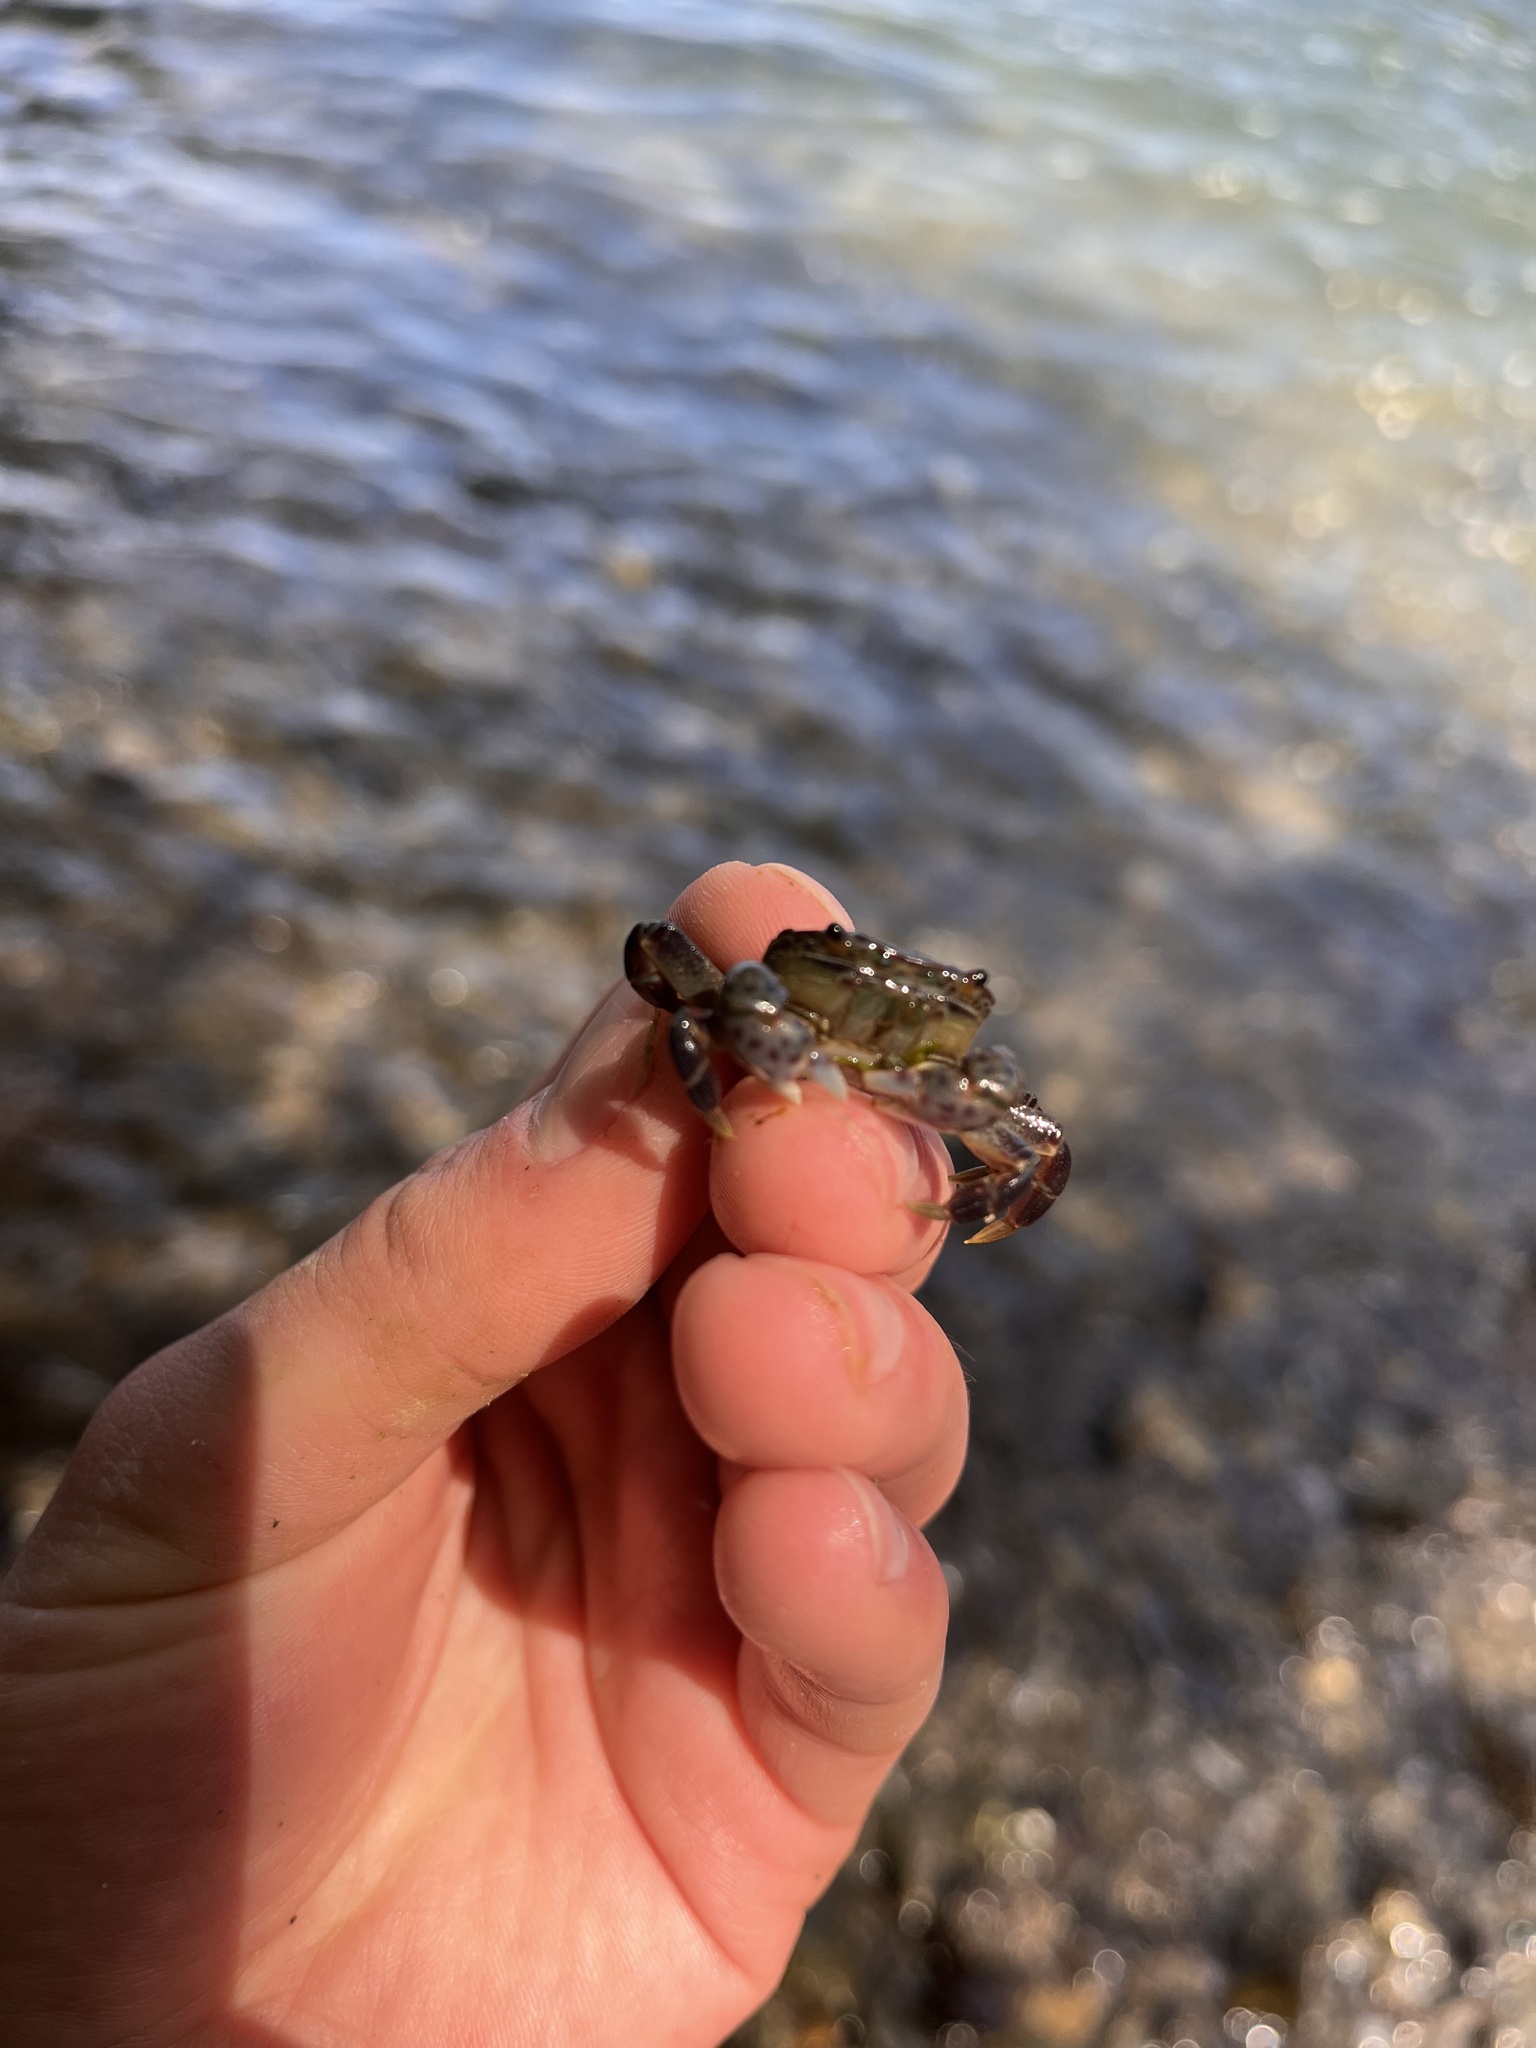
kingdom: Animalia
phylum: Arthropoda
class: Malacostraca
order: Decapoda
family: Varunidae
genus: Hemigrapsus
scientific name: Hemigrapsus nudus
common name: Purple shore crab
